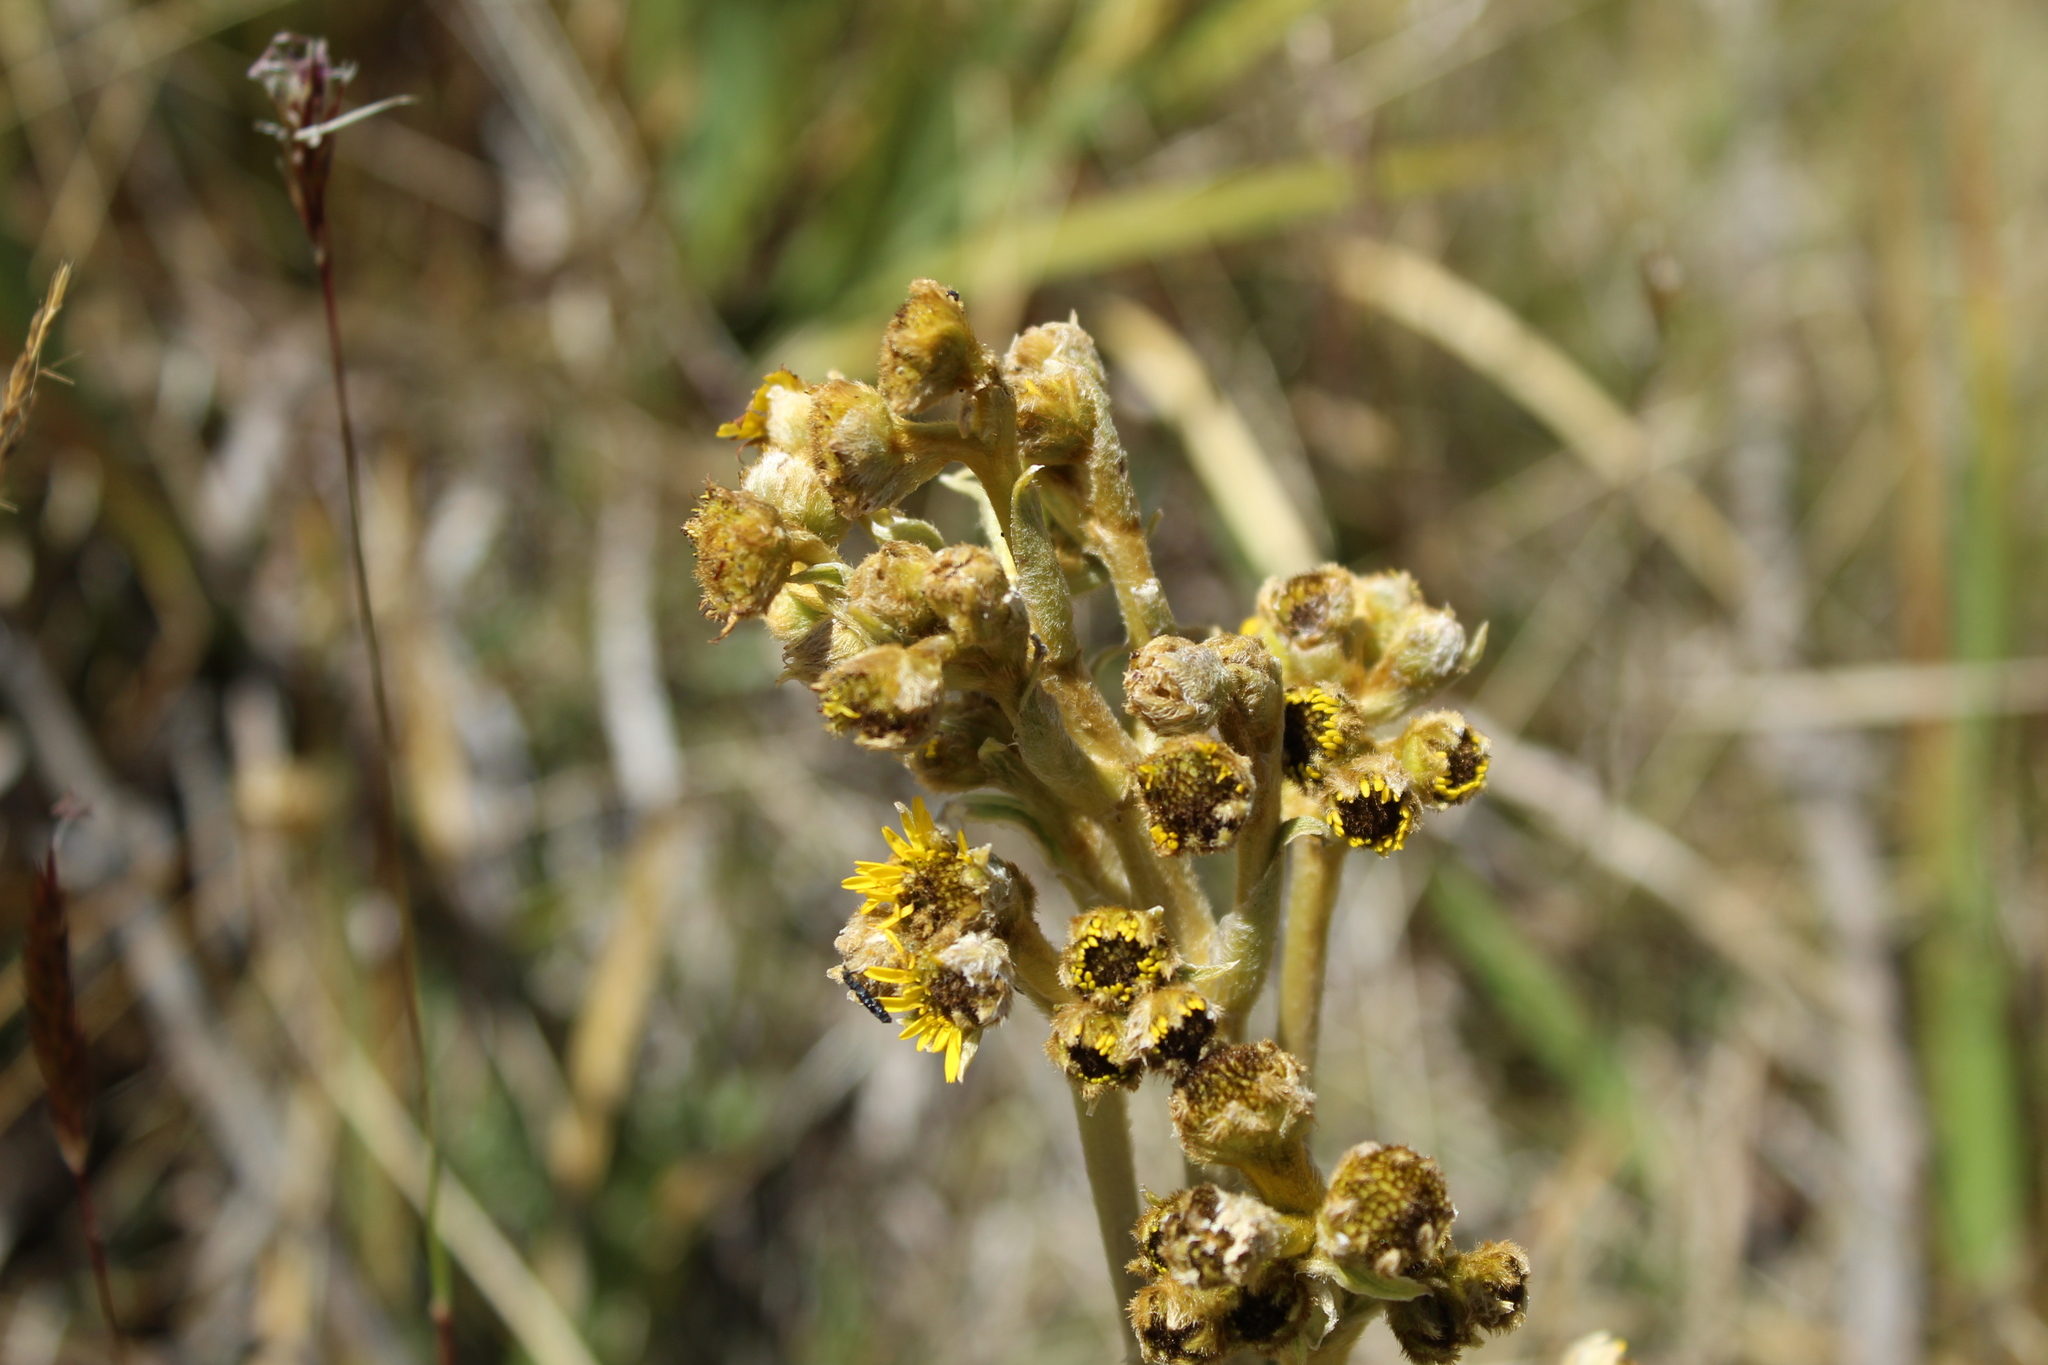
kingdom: Plantae
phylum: Tracheophyta
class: Magnoliopsida
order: Asterales
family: Asteraceae
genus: Espeletia
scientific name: Espeletia boyacensis
